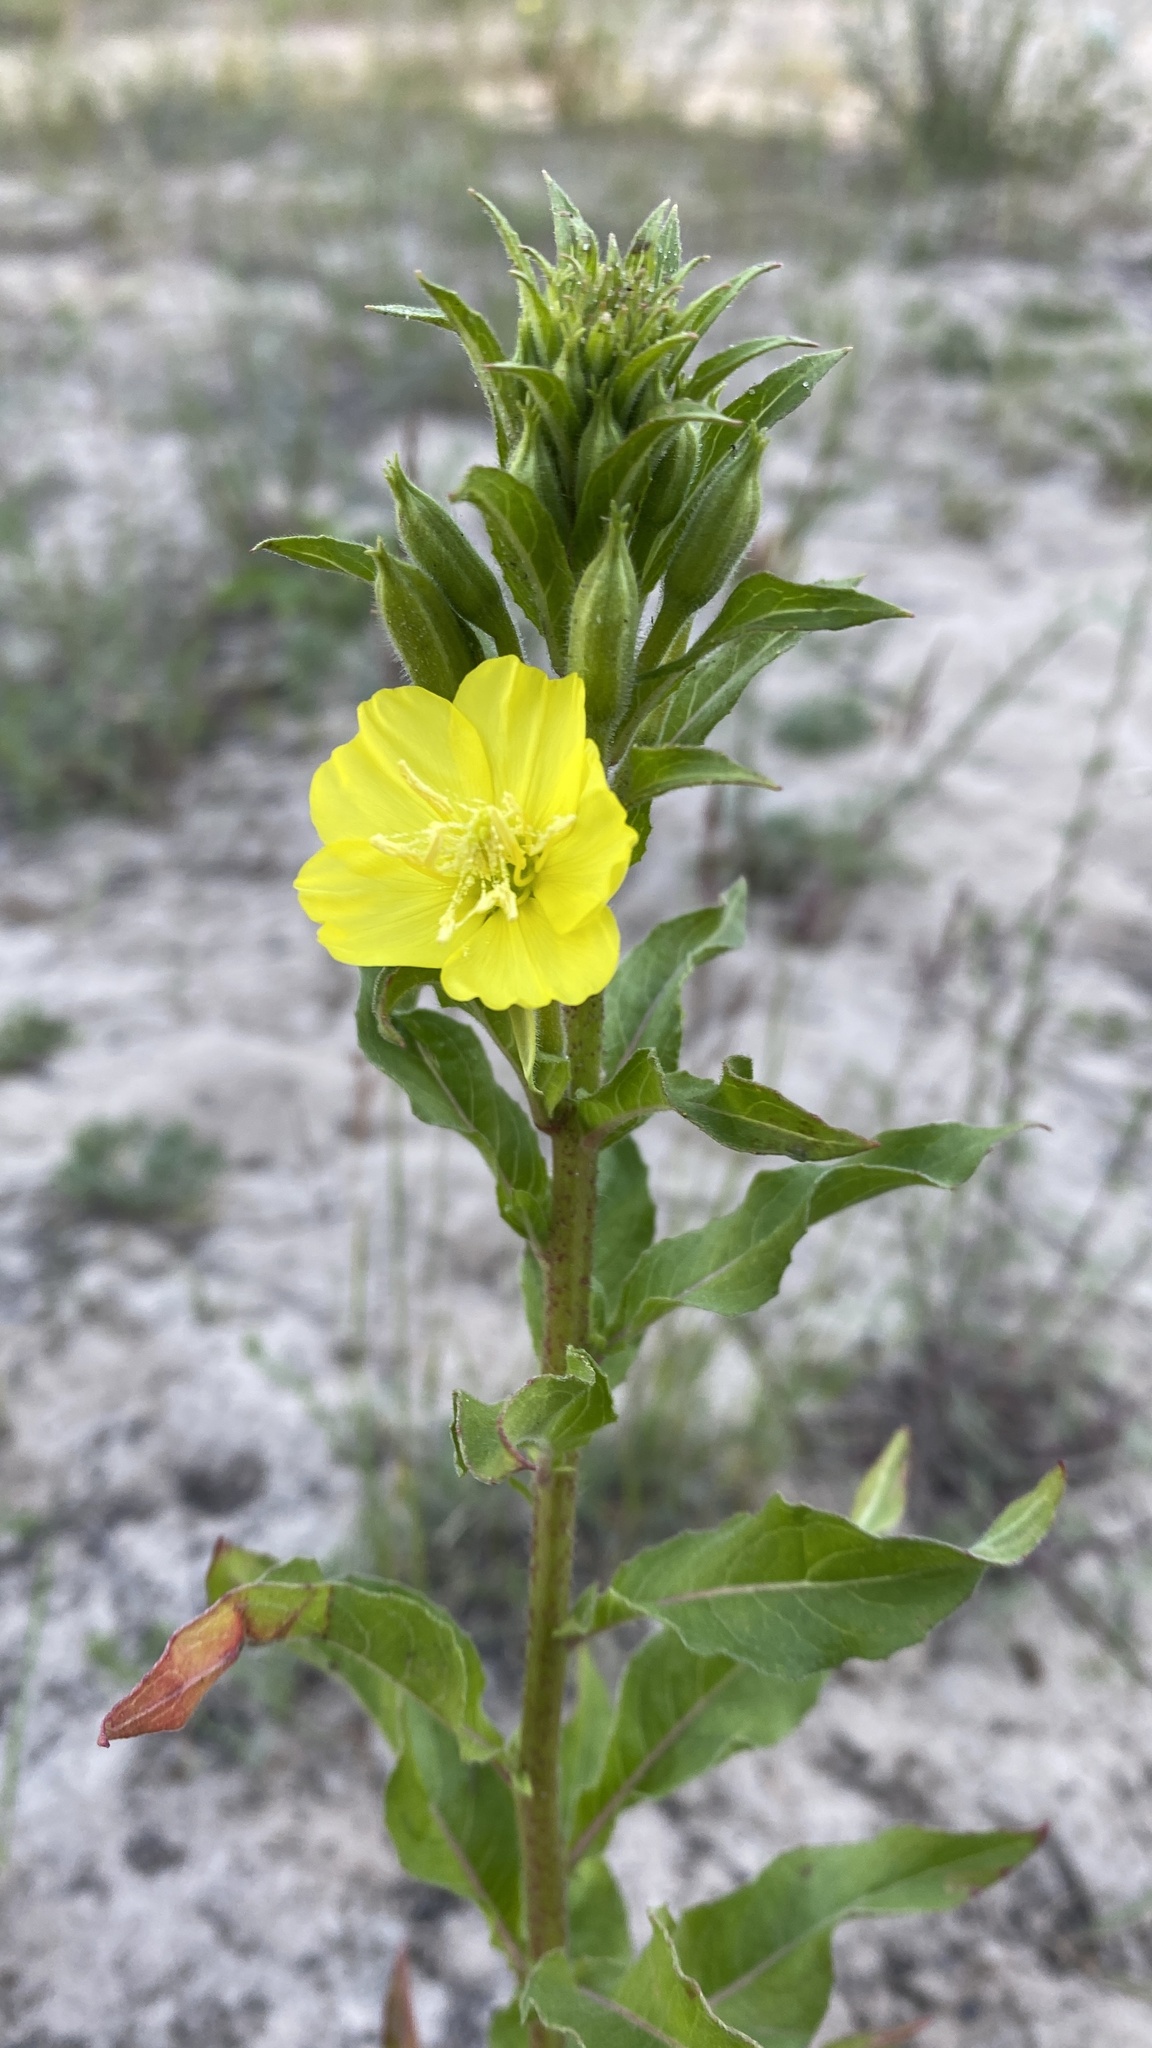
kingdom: Plantae
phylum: Tracheophyta
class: Magnoliopsida
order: Myrtales
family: Onagraceae
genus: Oenothera
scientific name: Oenothera rubricaulis
